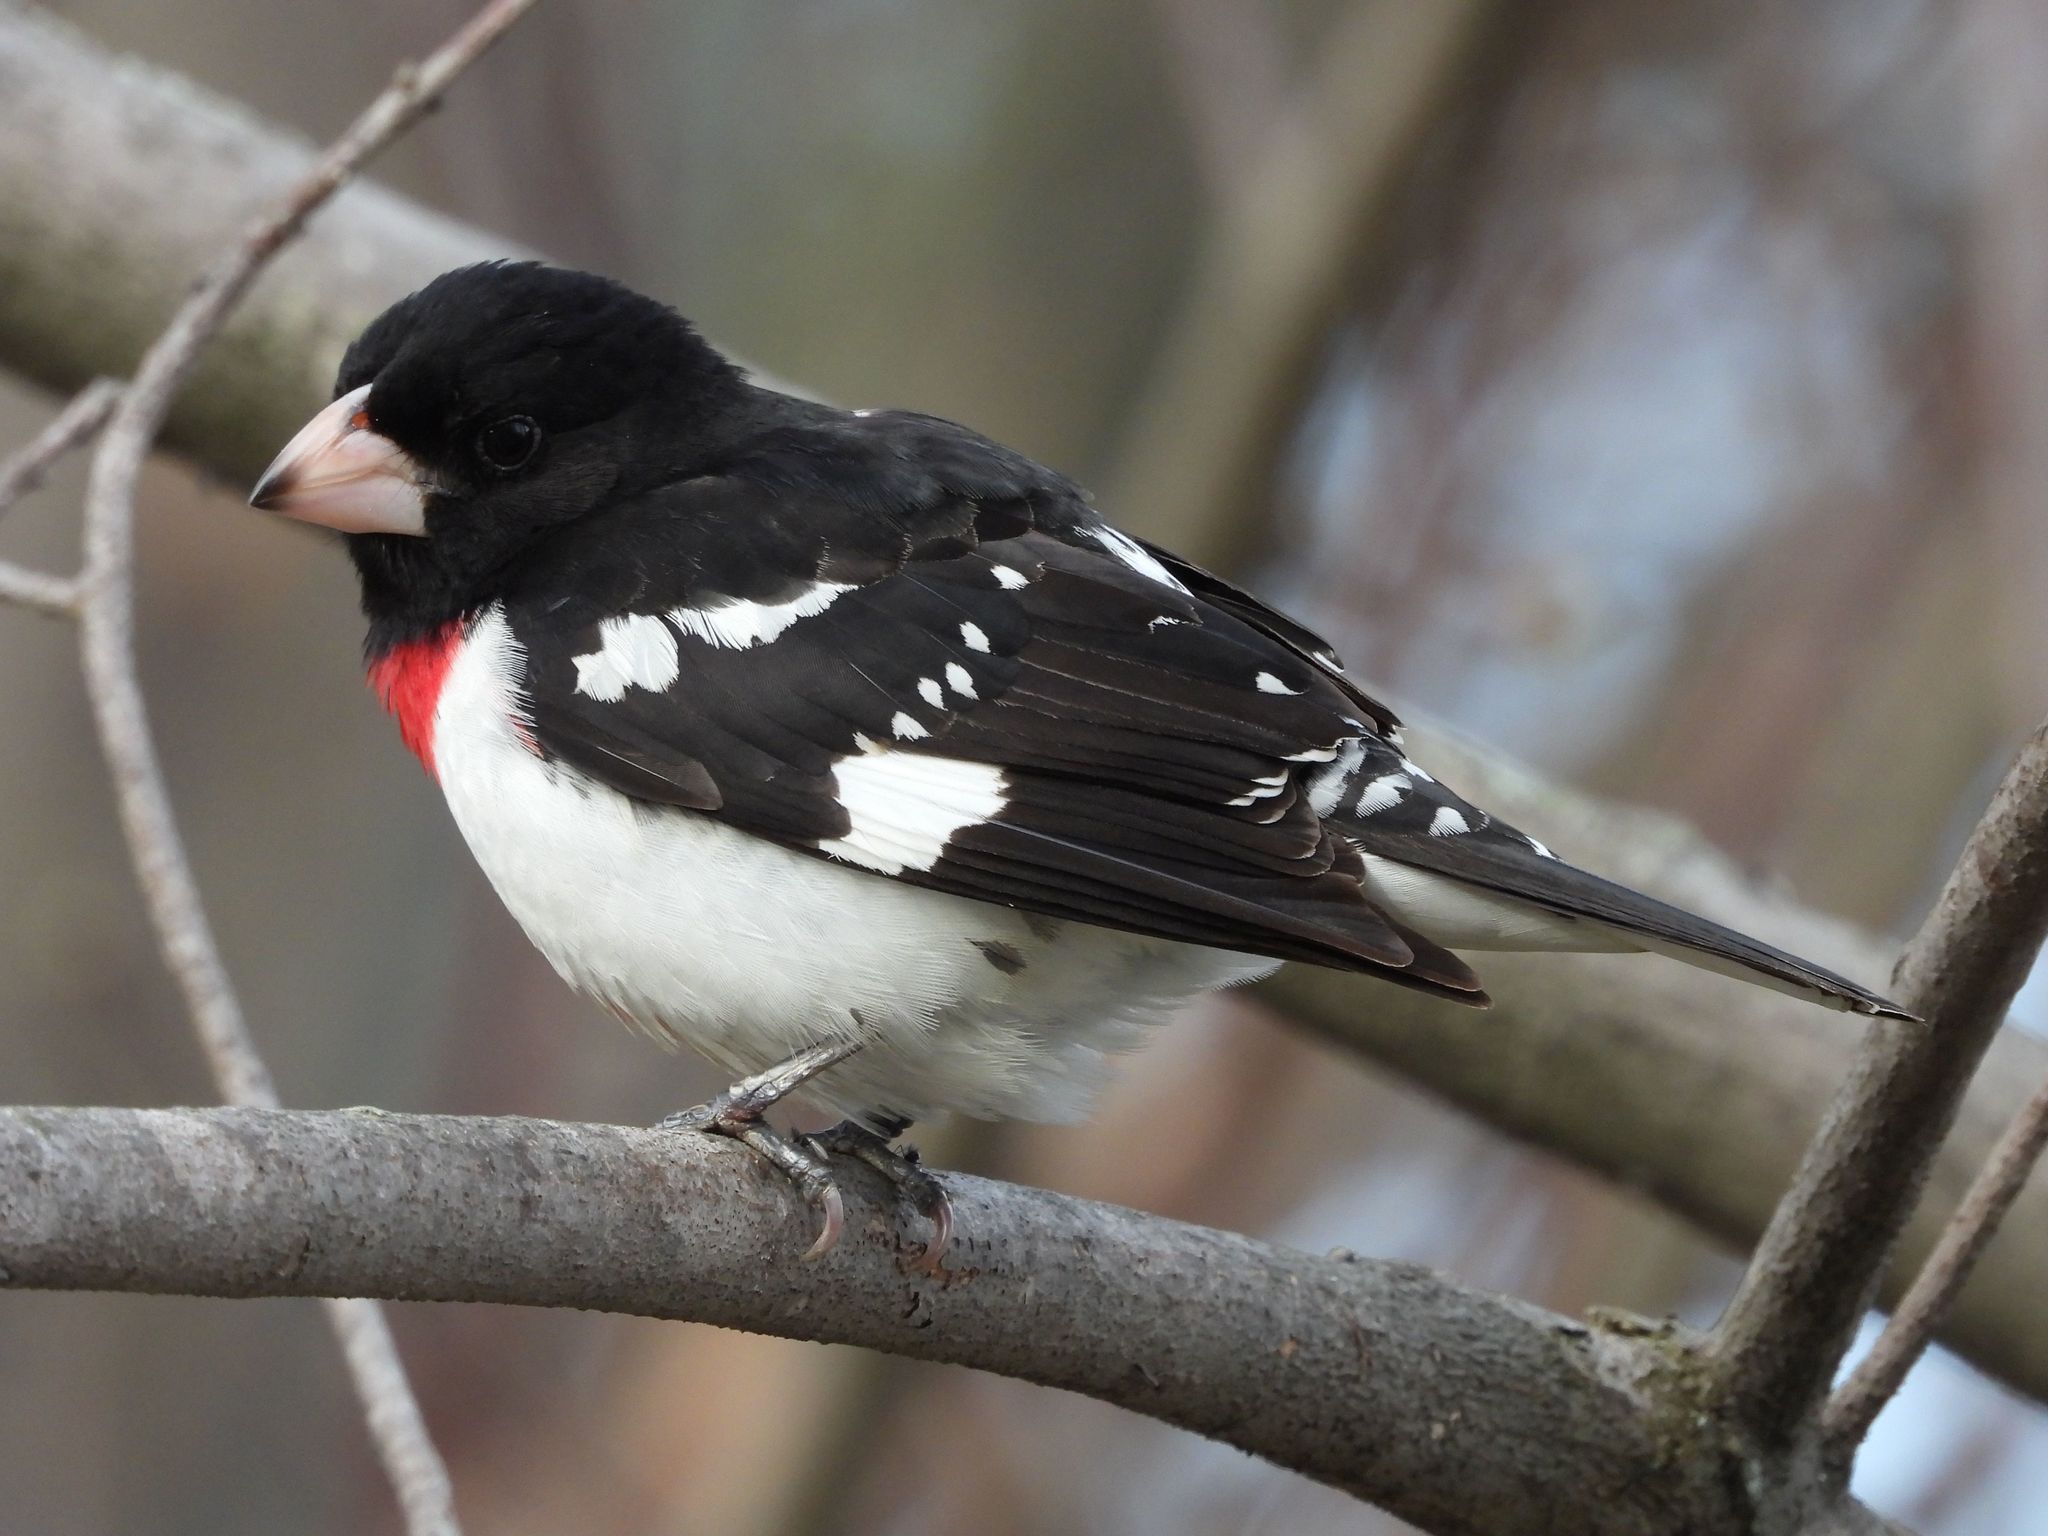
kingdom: Animalia
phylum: Chordata
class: Aves
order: Passeriformes
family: Cardinalidae
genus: Pheucticus
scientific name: Pheucticus ludovicianus
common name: Rose-breasted grosbeak
